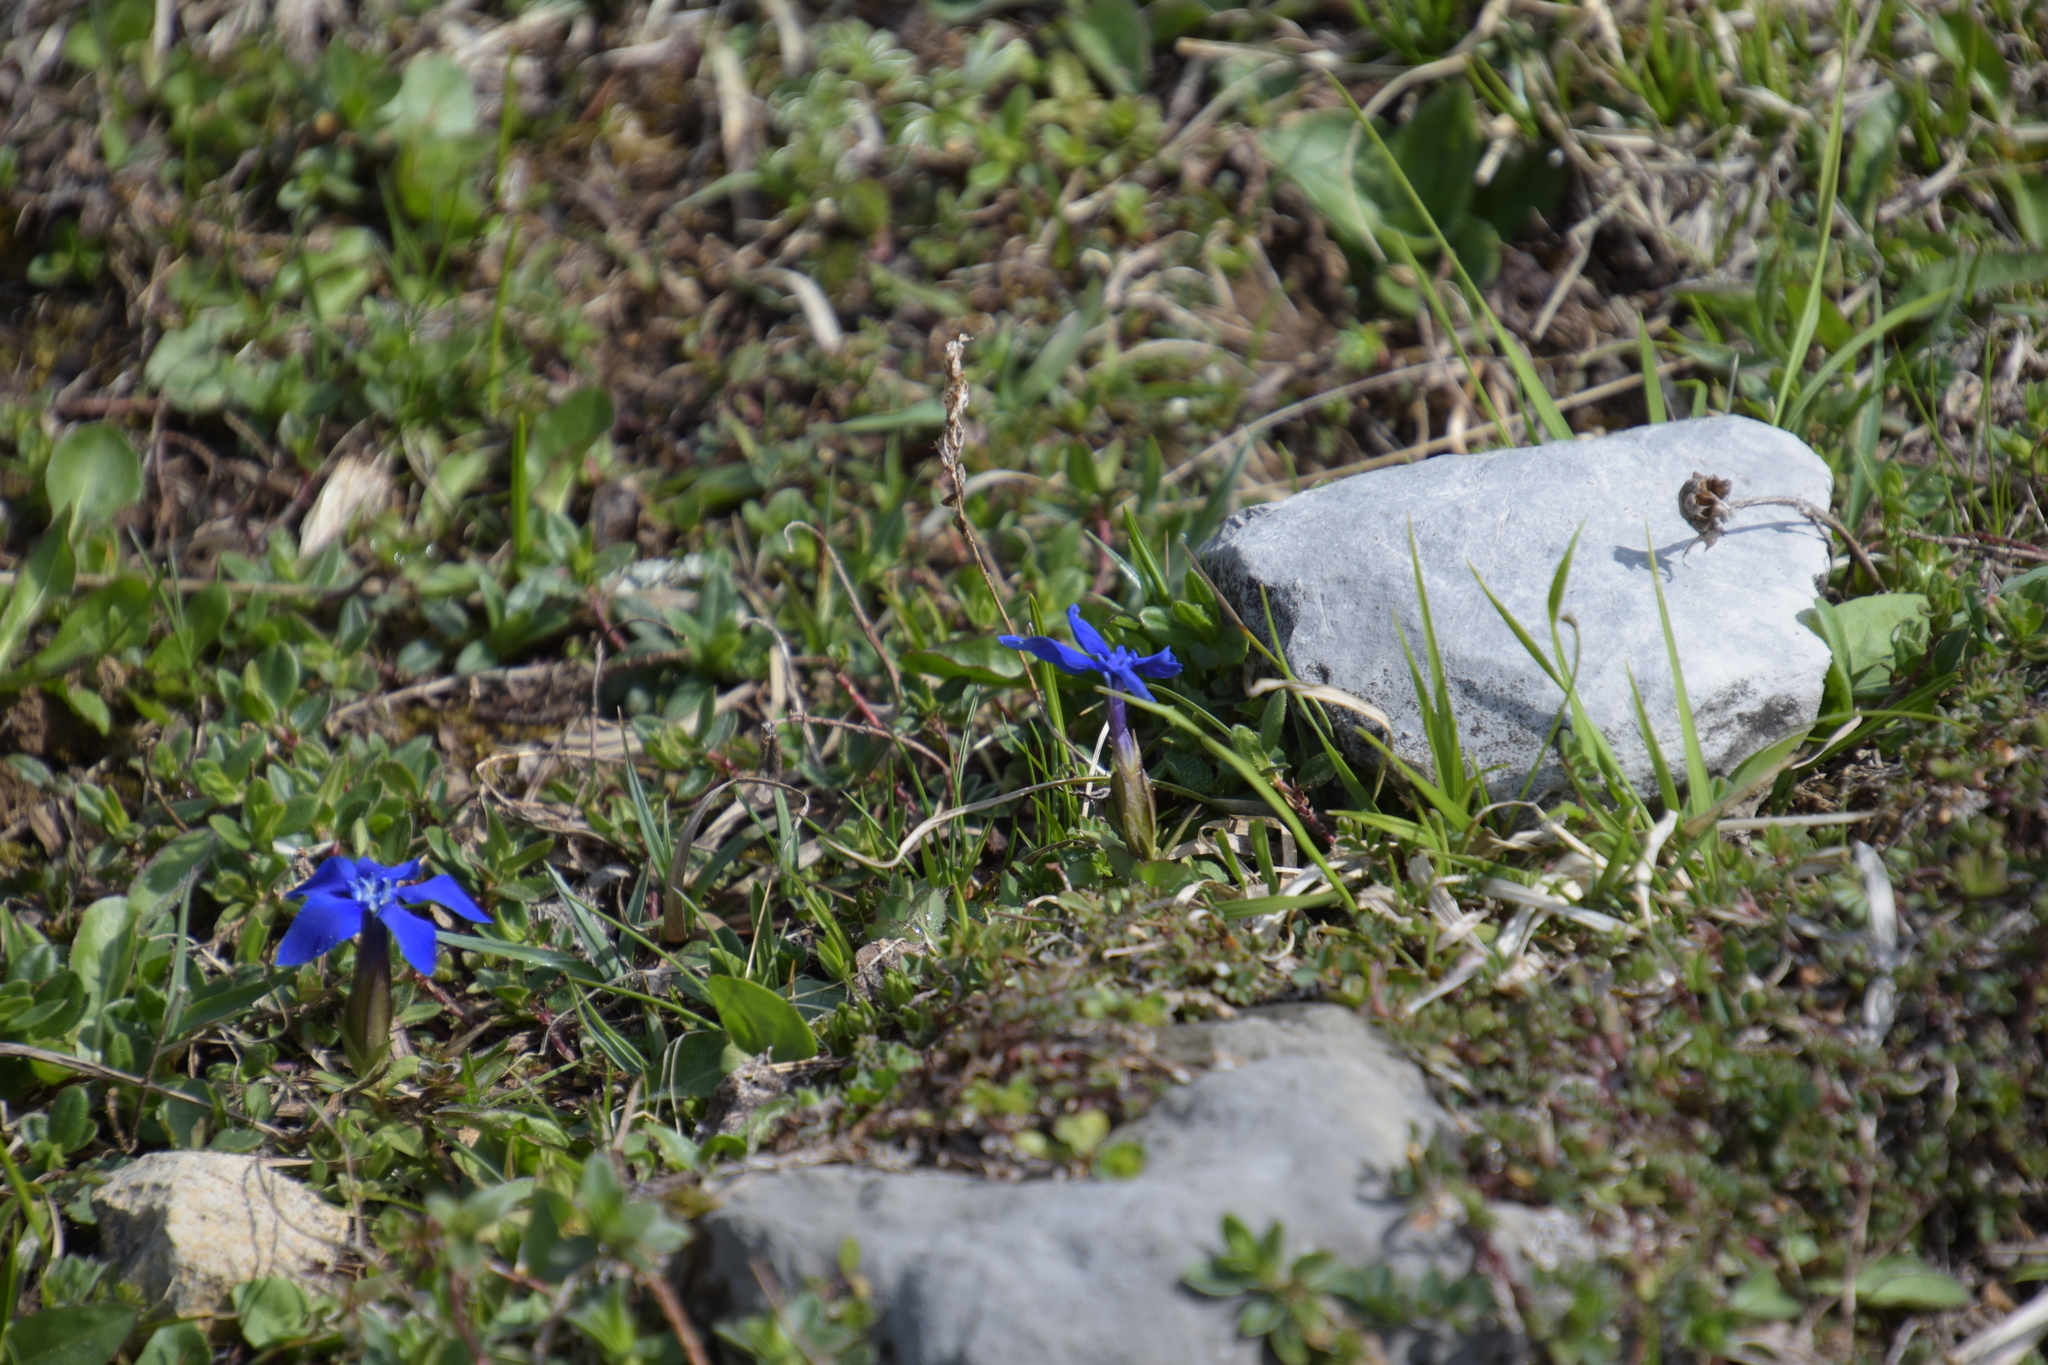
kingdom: Plantae
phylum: Tracheophyta
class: Magnoliopsida
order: Gentianales
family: Gentianaceae
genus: Gentiana
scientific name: Gentiana verna
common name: Spring gentian
